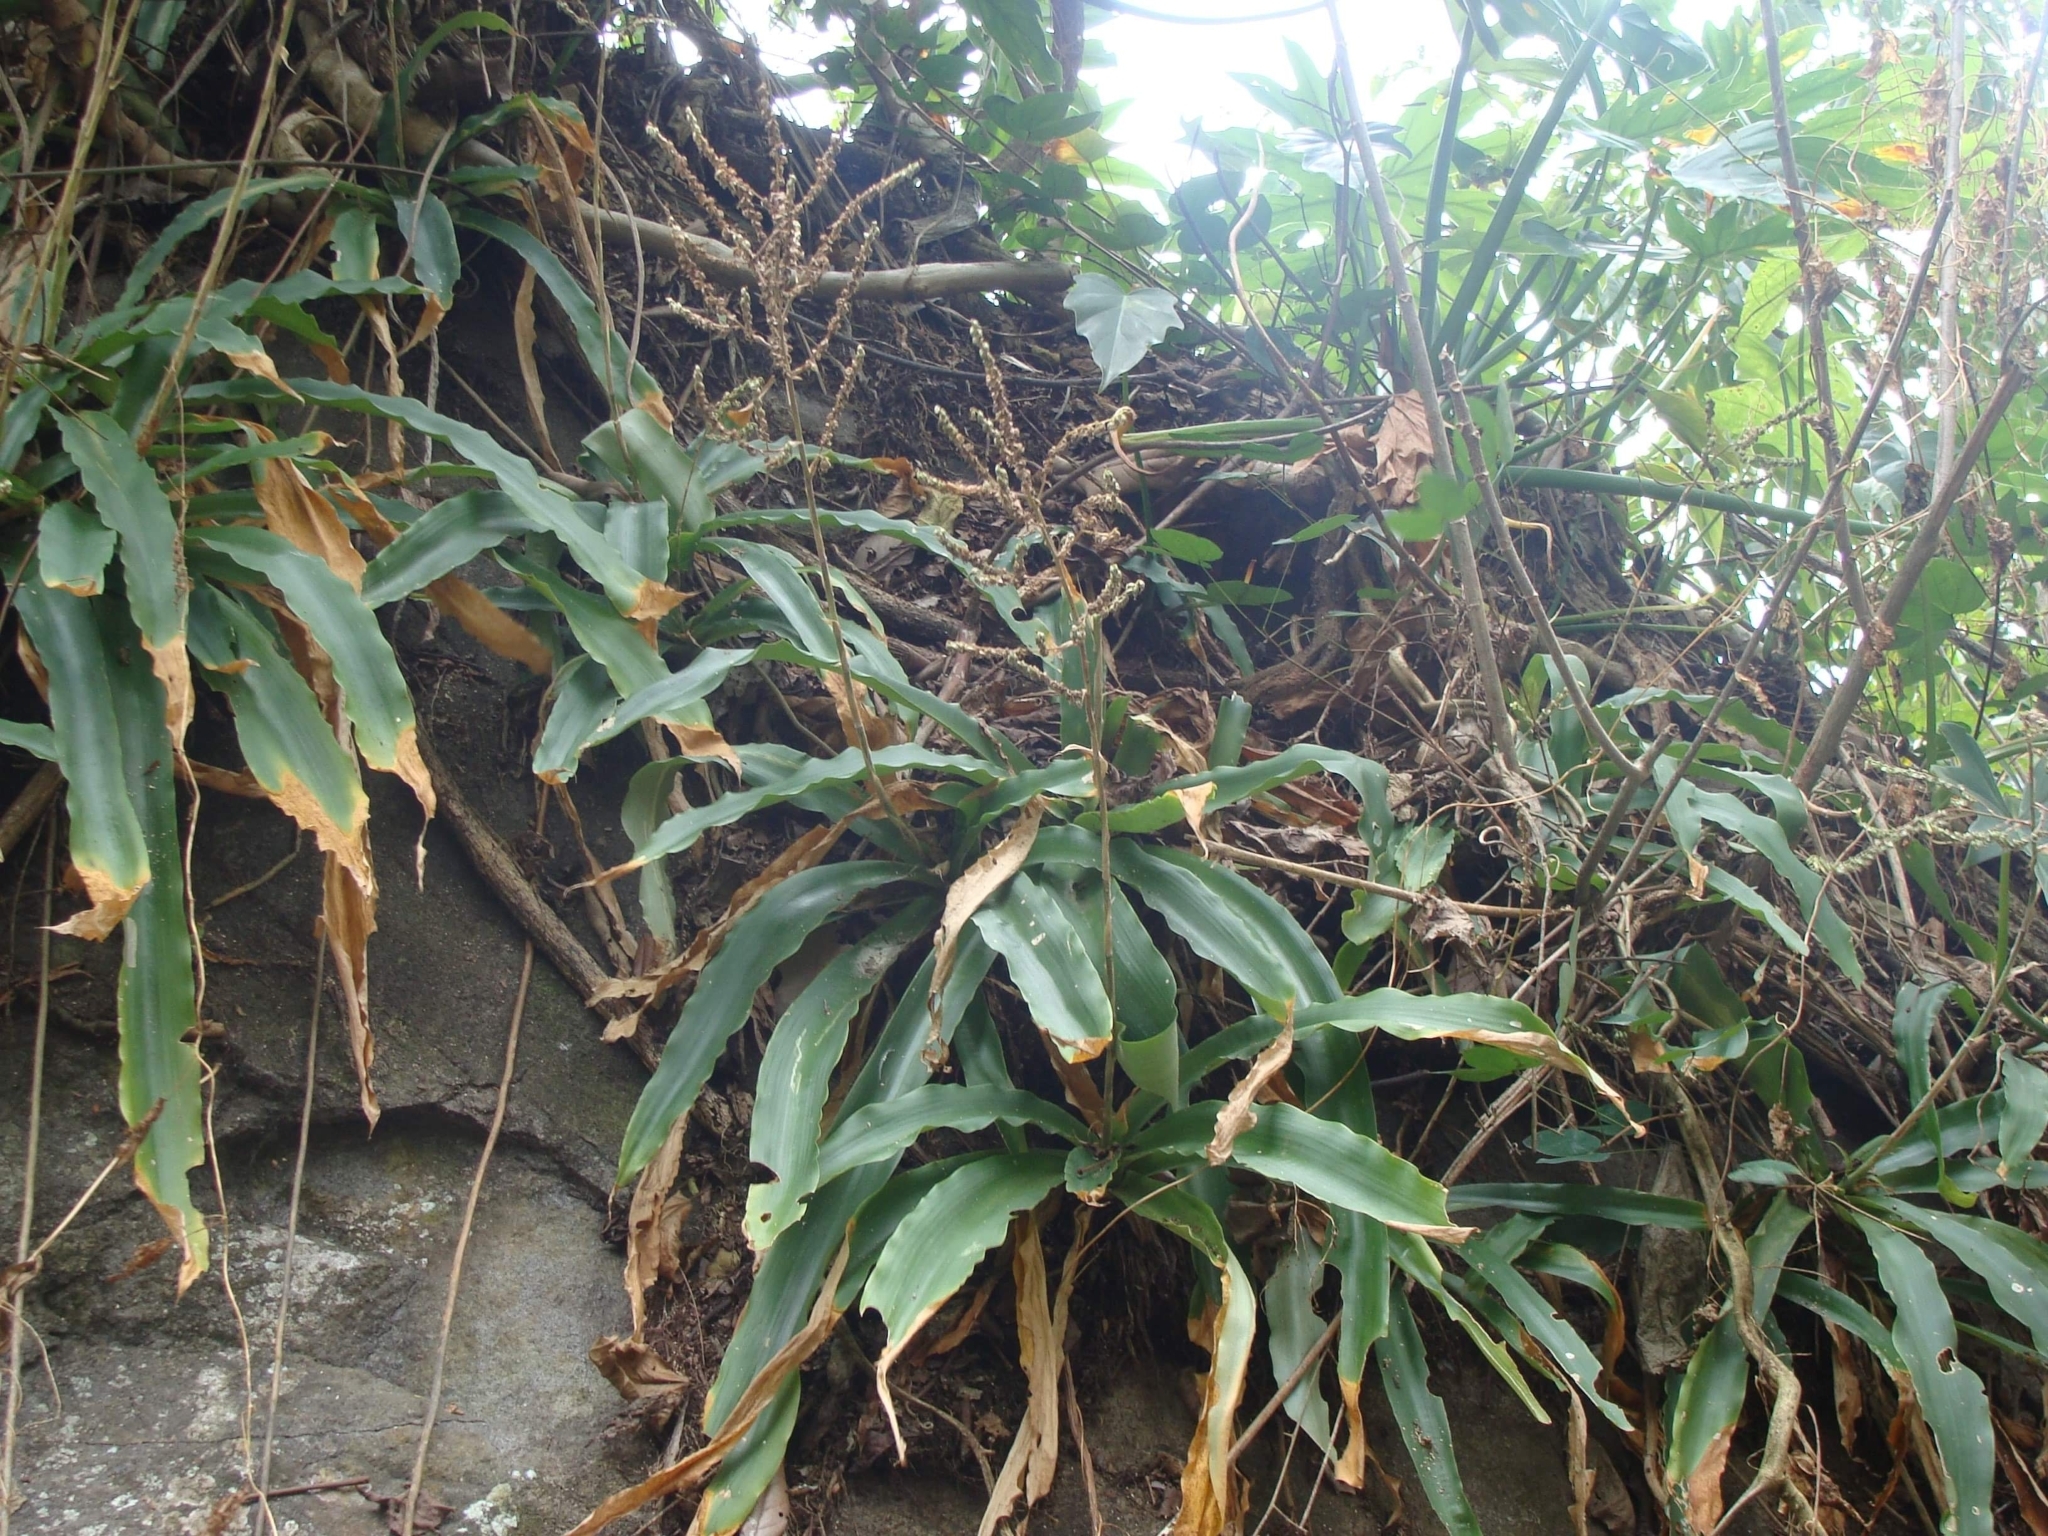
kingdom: Plantae
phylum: Tracheophyta
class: Liliopsida
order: Poales
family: Bromeliaceae
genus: Fosterella
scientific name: Fosterella micrantha
